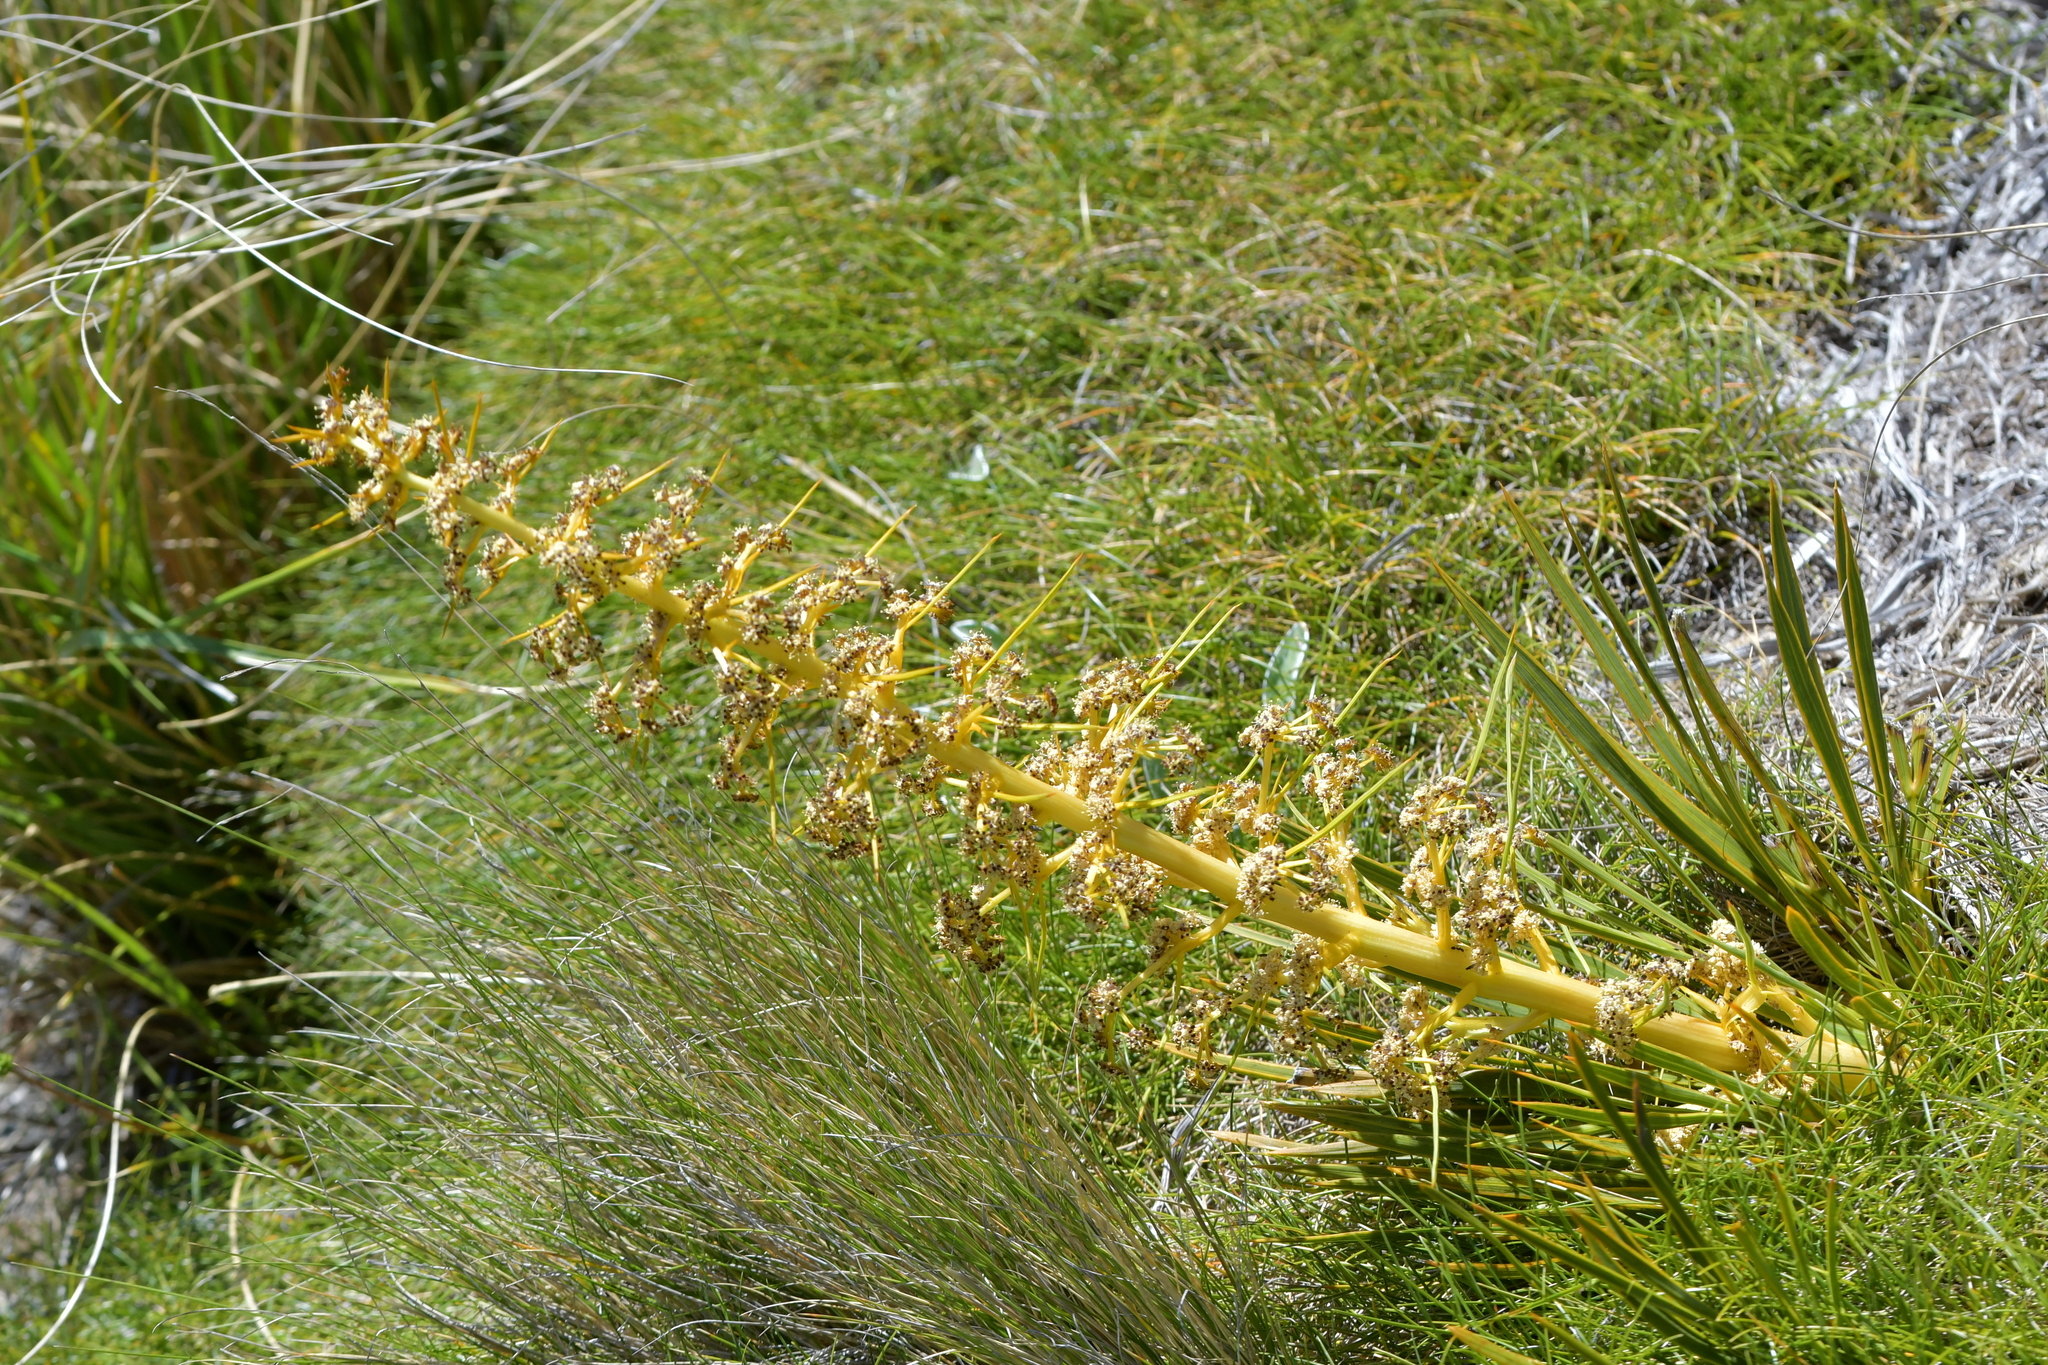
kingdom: Plantae
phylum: Tracheophyta
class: Magnoliopsida
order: Apiales
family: Apiaceae
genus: Aciphylla
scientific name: Aciphylla aurea
